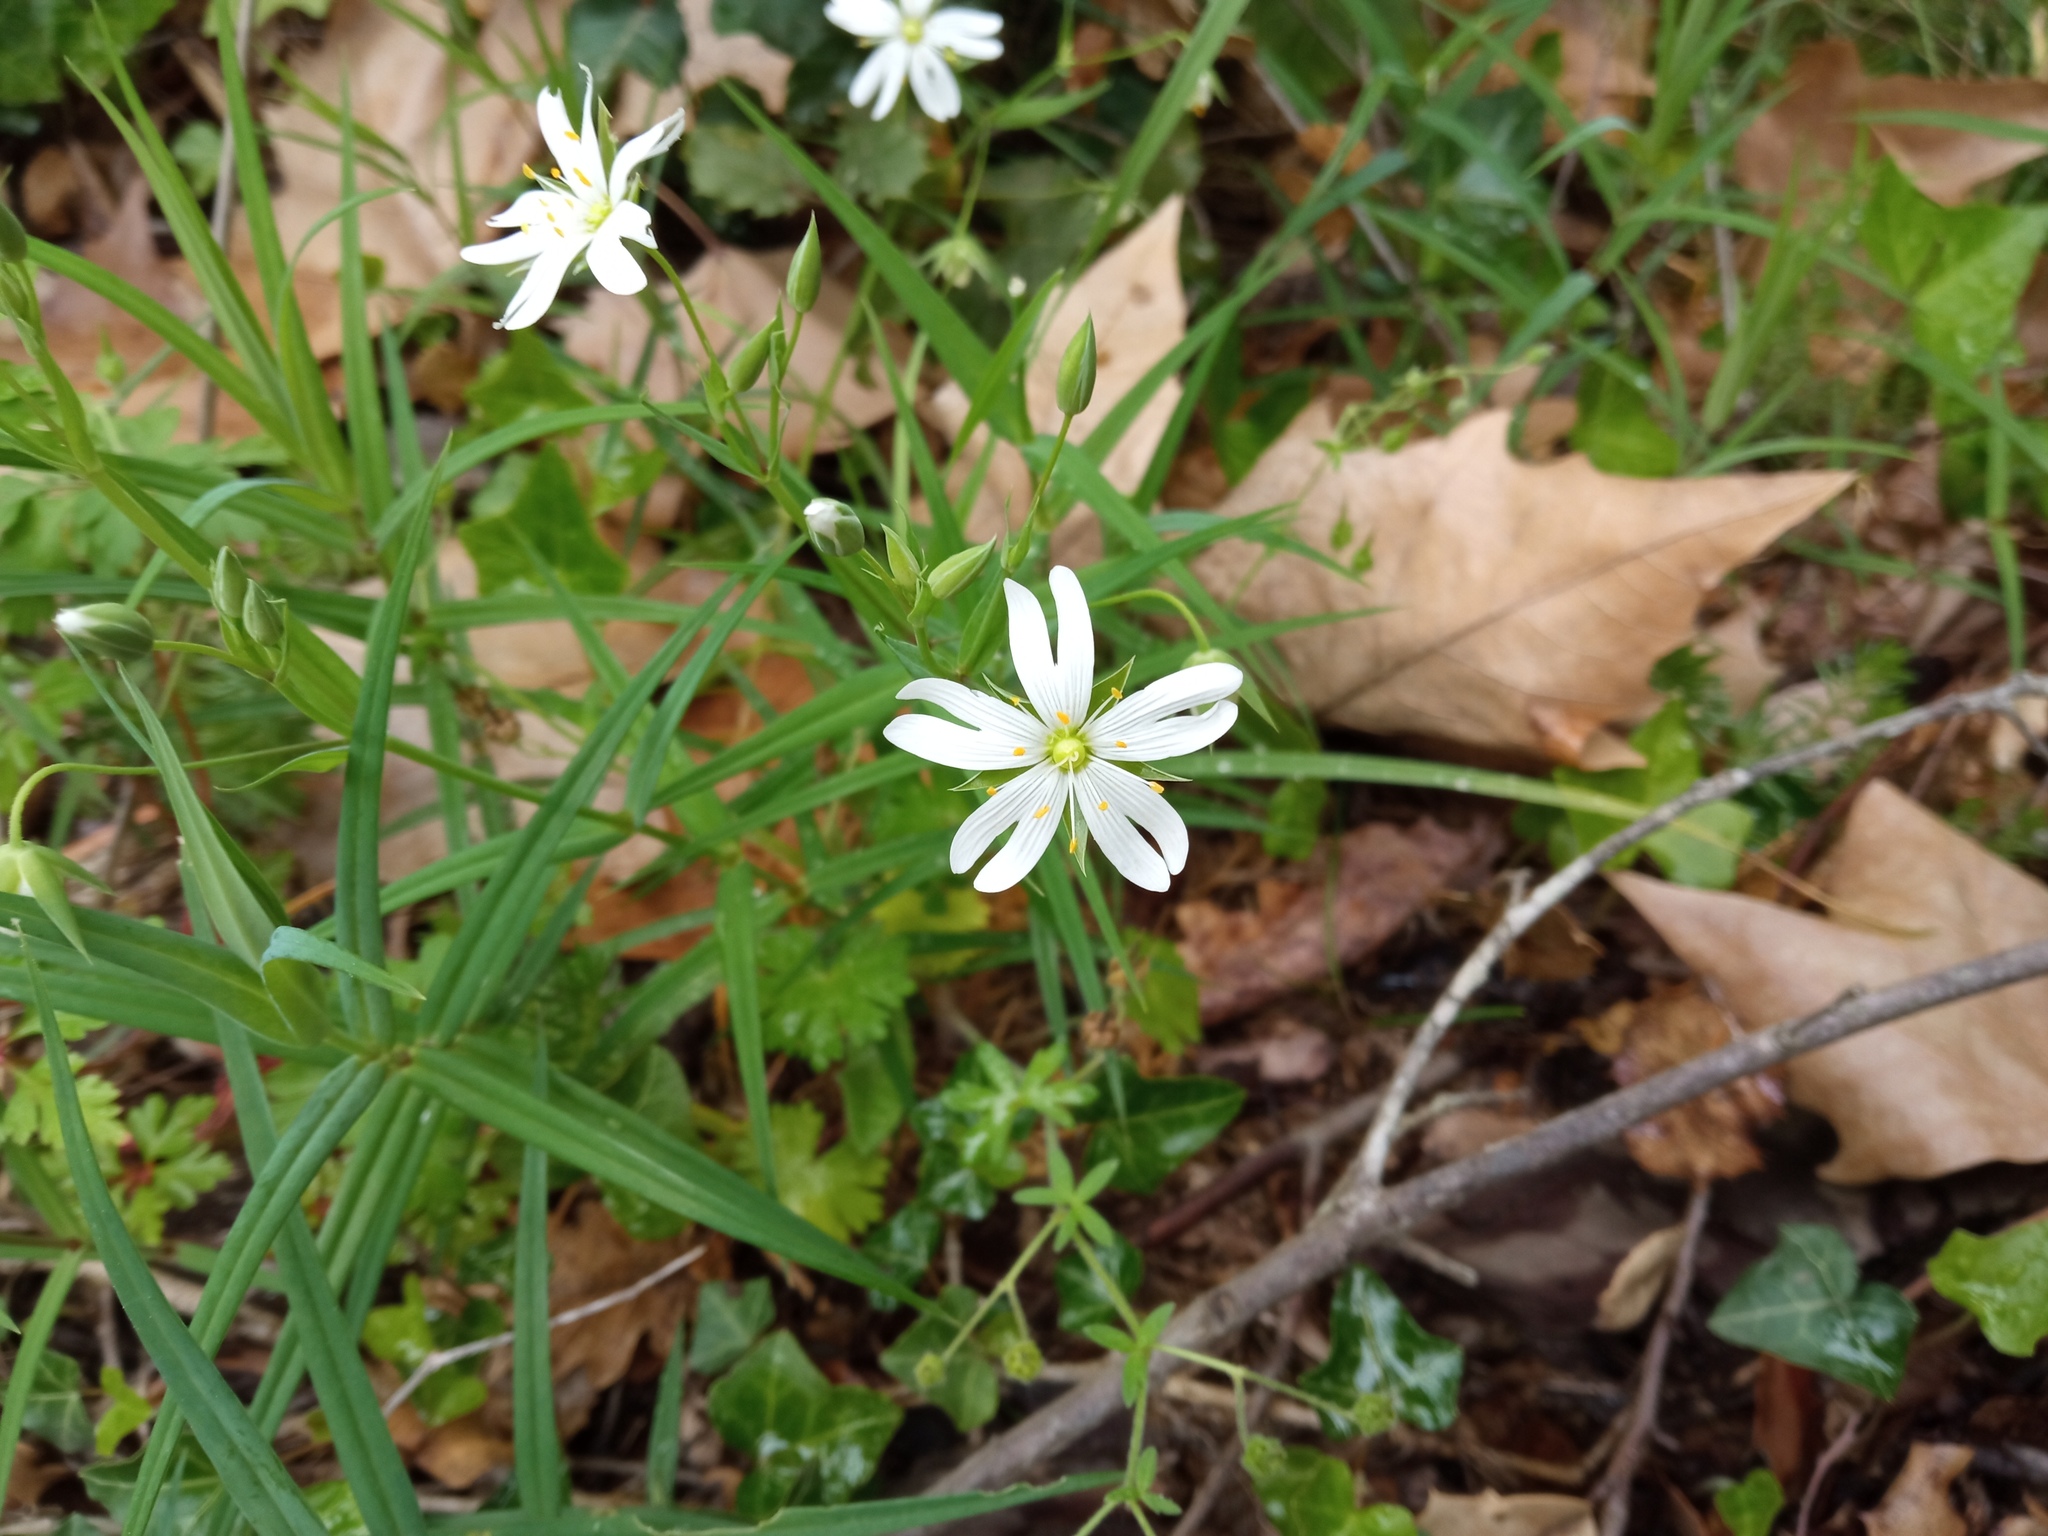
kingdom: Plantae
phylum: Tracheophyta
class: Magnoliopsida
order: Caryophyllales
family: Caryophyllaceae
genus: Rabelera
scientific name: Rabelera holostea
